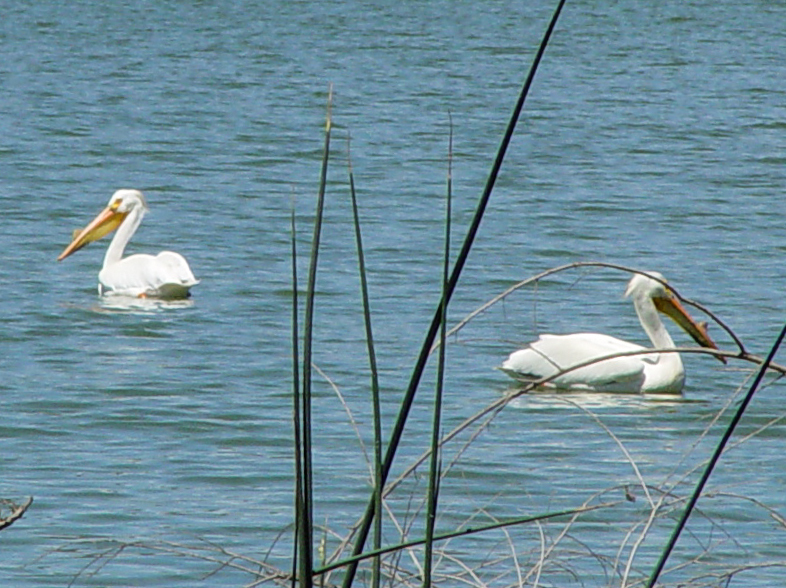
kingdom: Animalia
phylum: Chordata
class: Aves
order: Pelecaniformes
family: Pelecanidae
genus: Pelecanus
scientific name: Pelecanus erythrorhynchos
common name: American white pelican
